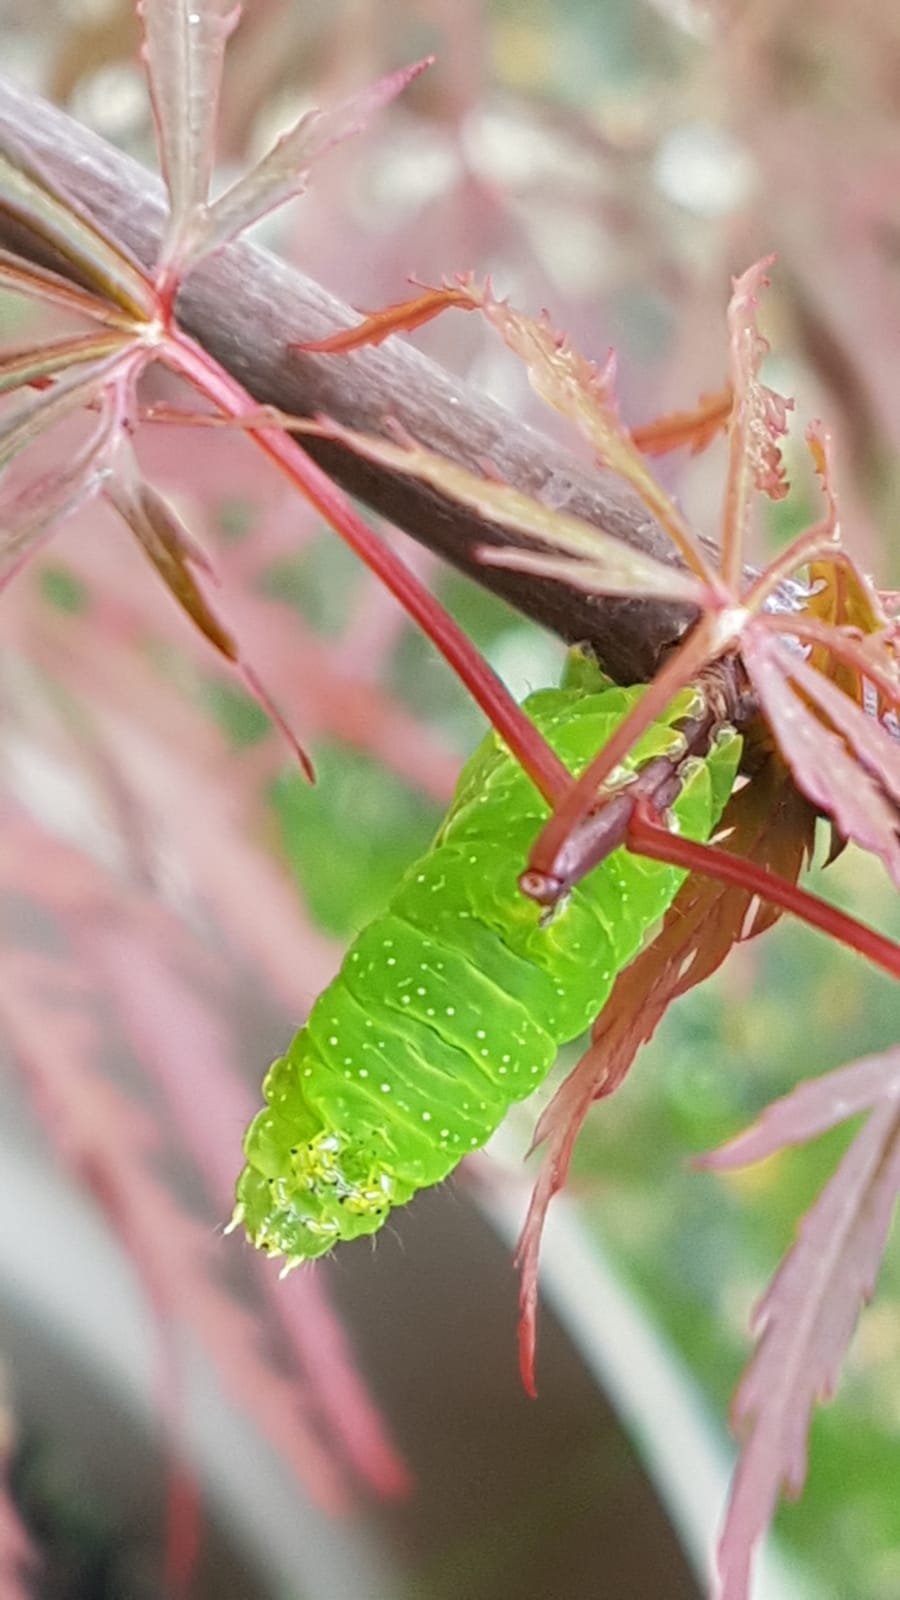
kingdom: Animalia
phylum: Arthropoda
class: Insecta
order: Lepidoptera
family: Noctuidae
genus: Amphipyra
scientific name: Amphipyra pyramidea
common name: Copper underwing
